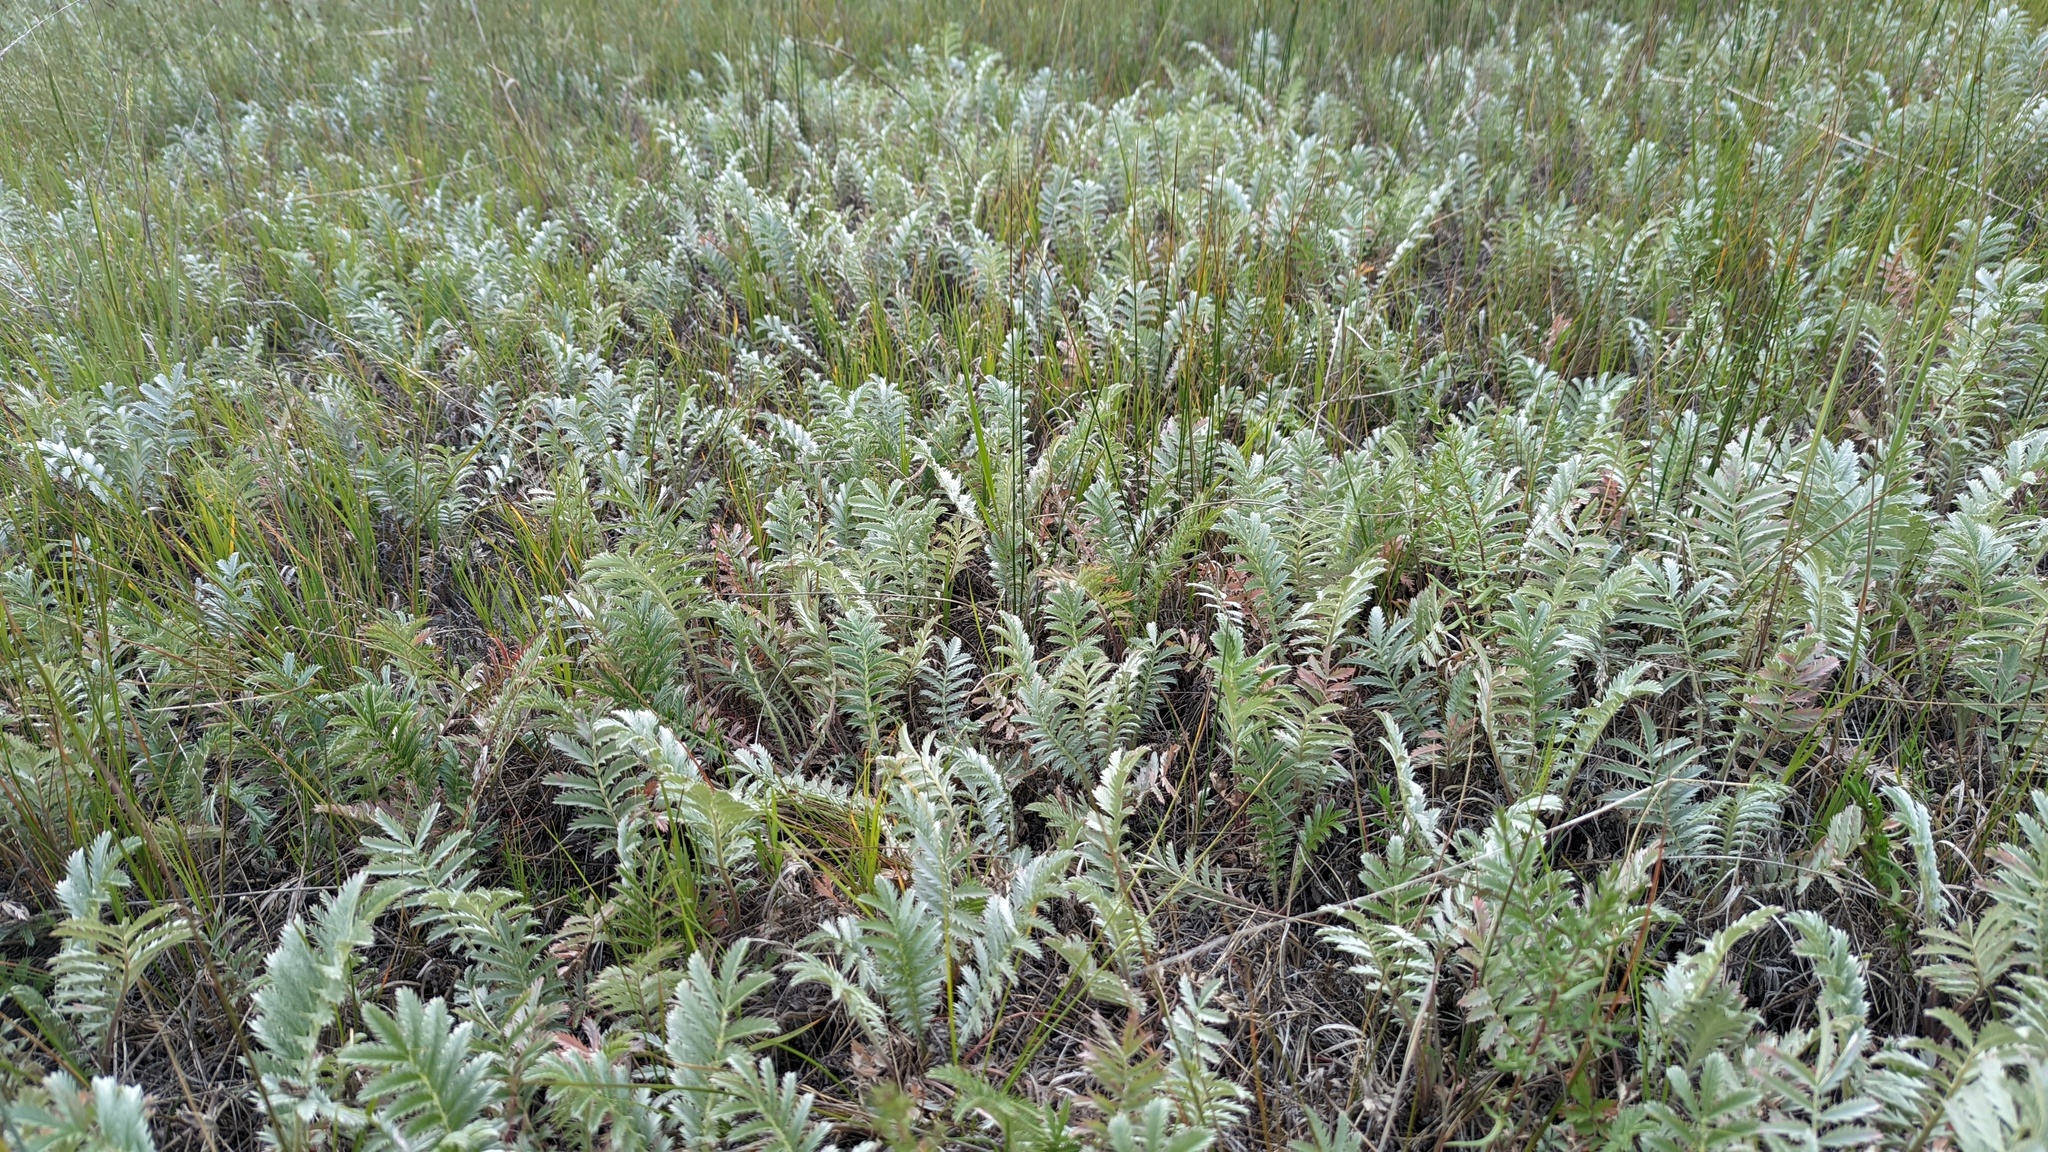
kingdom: Plantae
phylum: Tracheophyta
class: Magnoliopsida
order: Rosales
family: Rosaceae
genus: Argentina
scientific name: Argentina anserina
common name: Common silverweed
